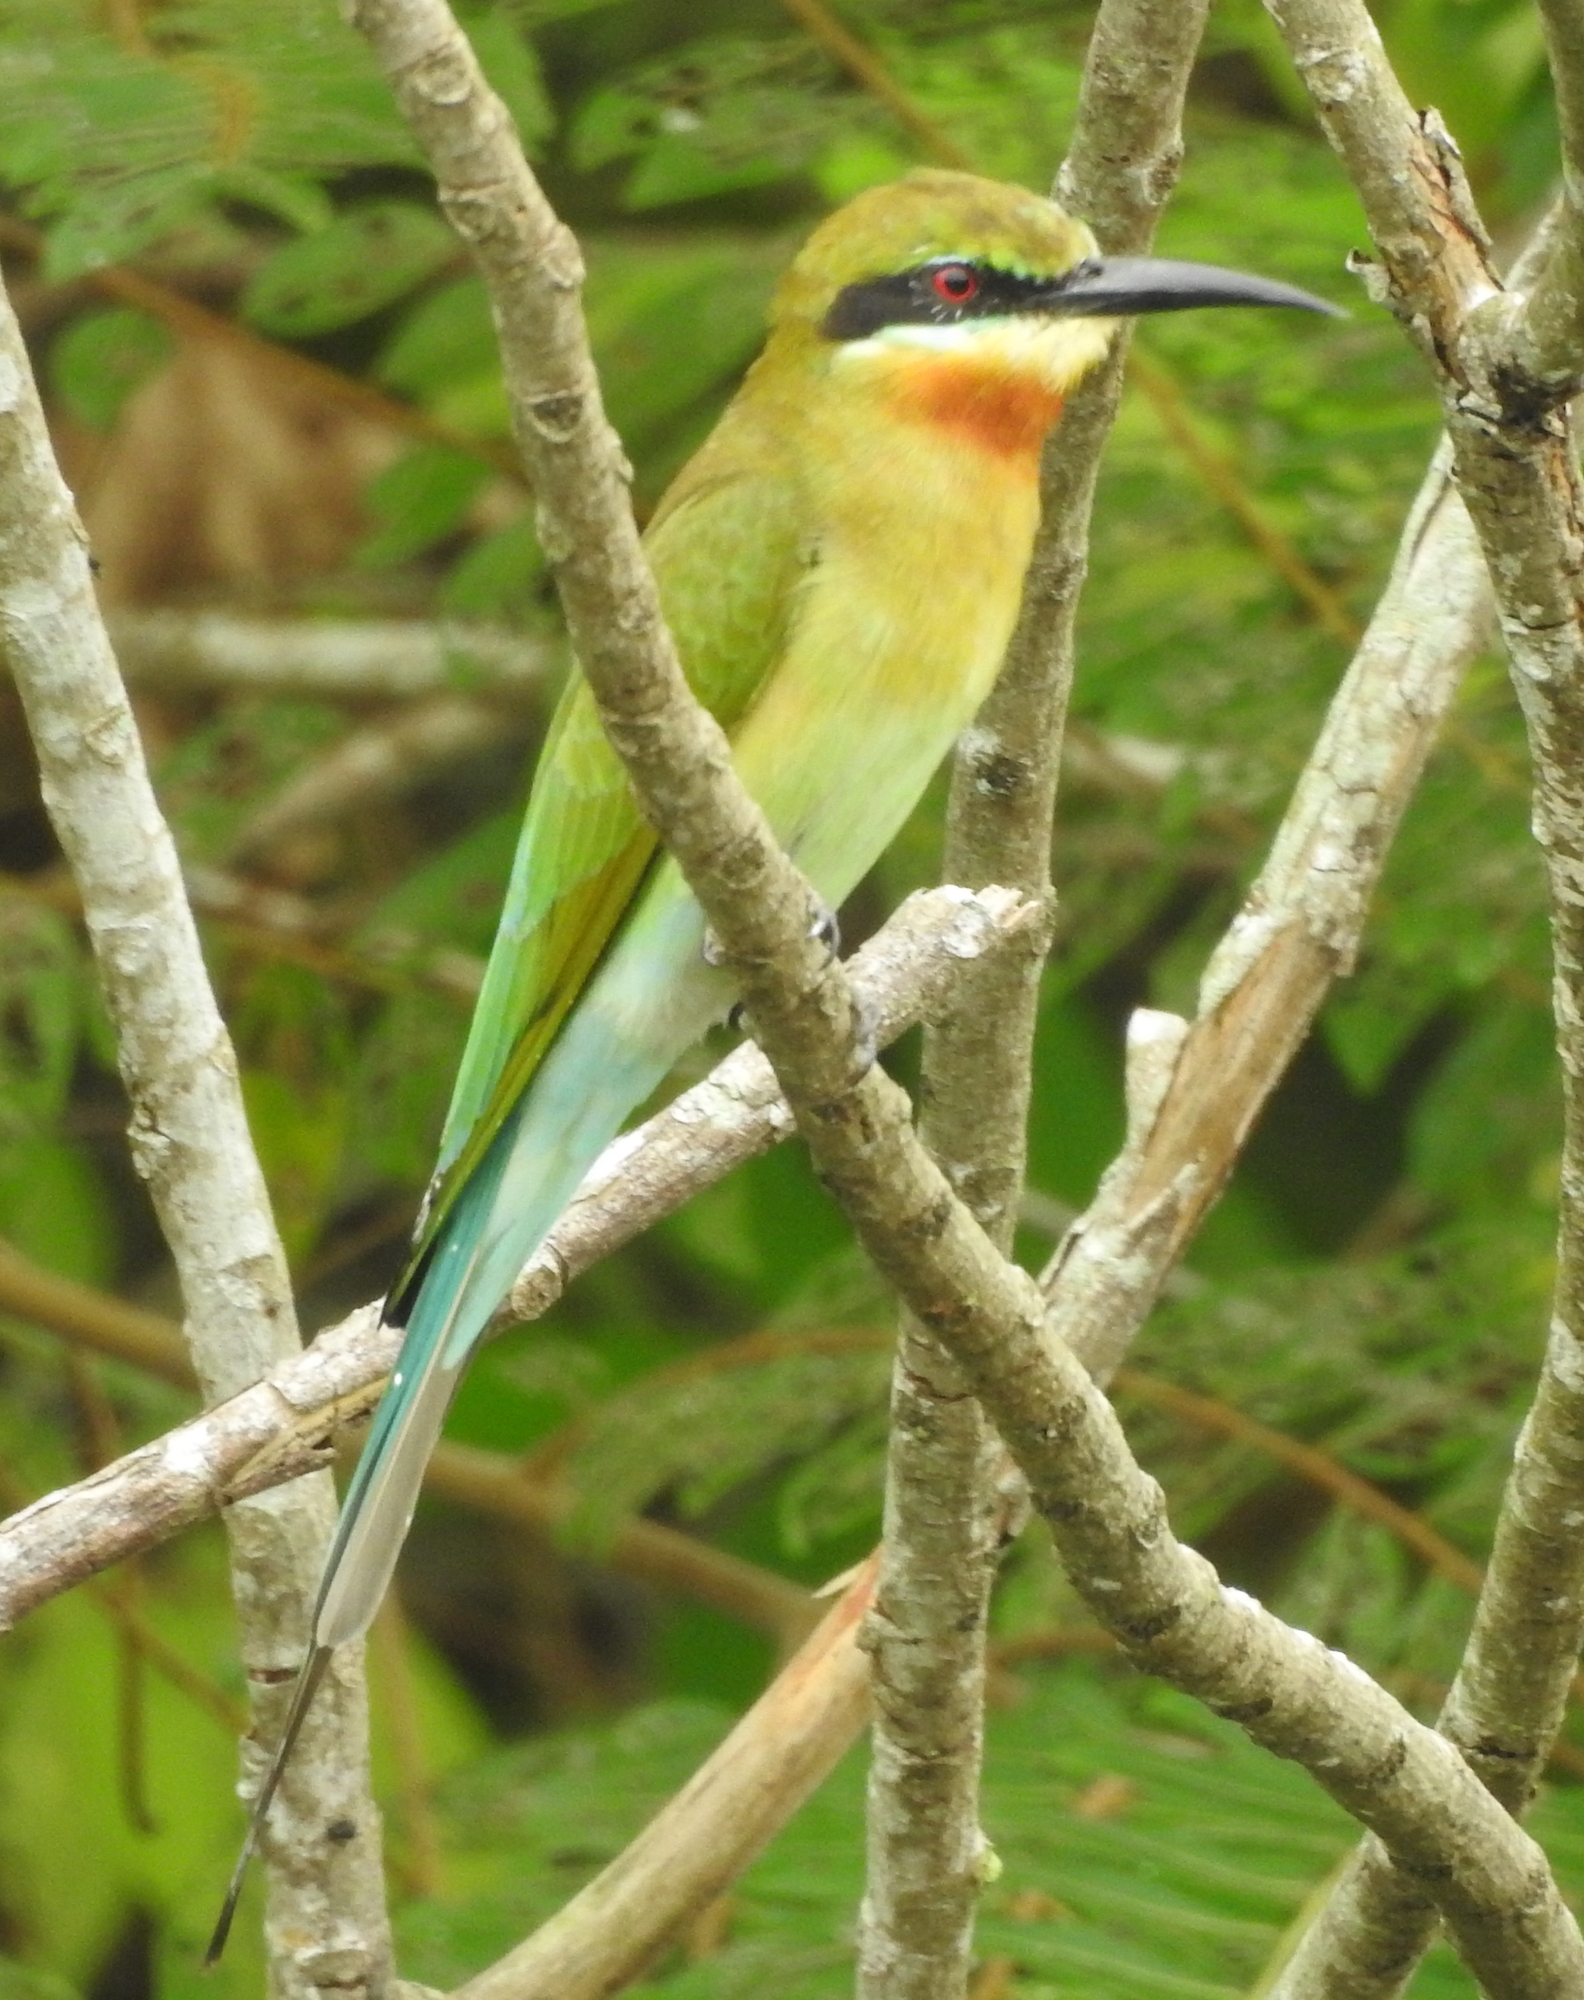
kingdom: Animalia
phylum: Chordata
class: Aves
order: Coraciiformes
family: Meropidae
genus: Merops
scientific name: Merops philippinus
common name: Blue-tailed bee-eater
